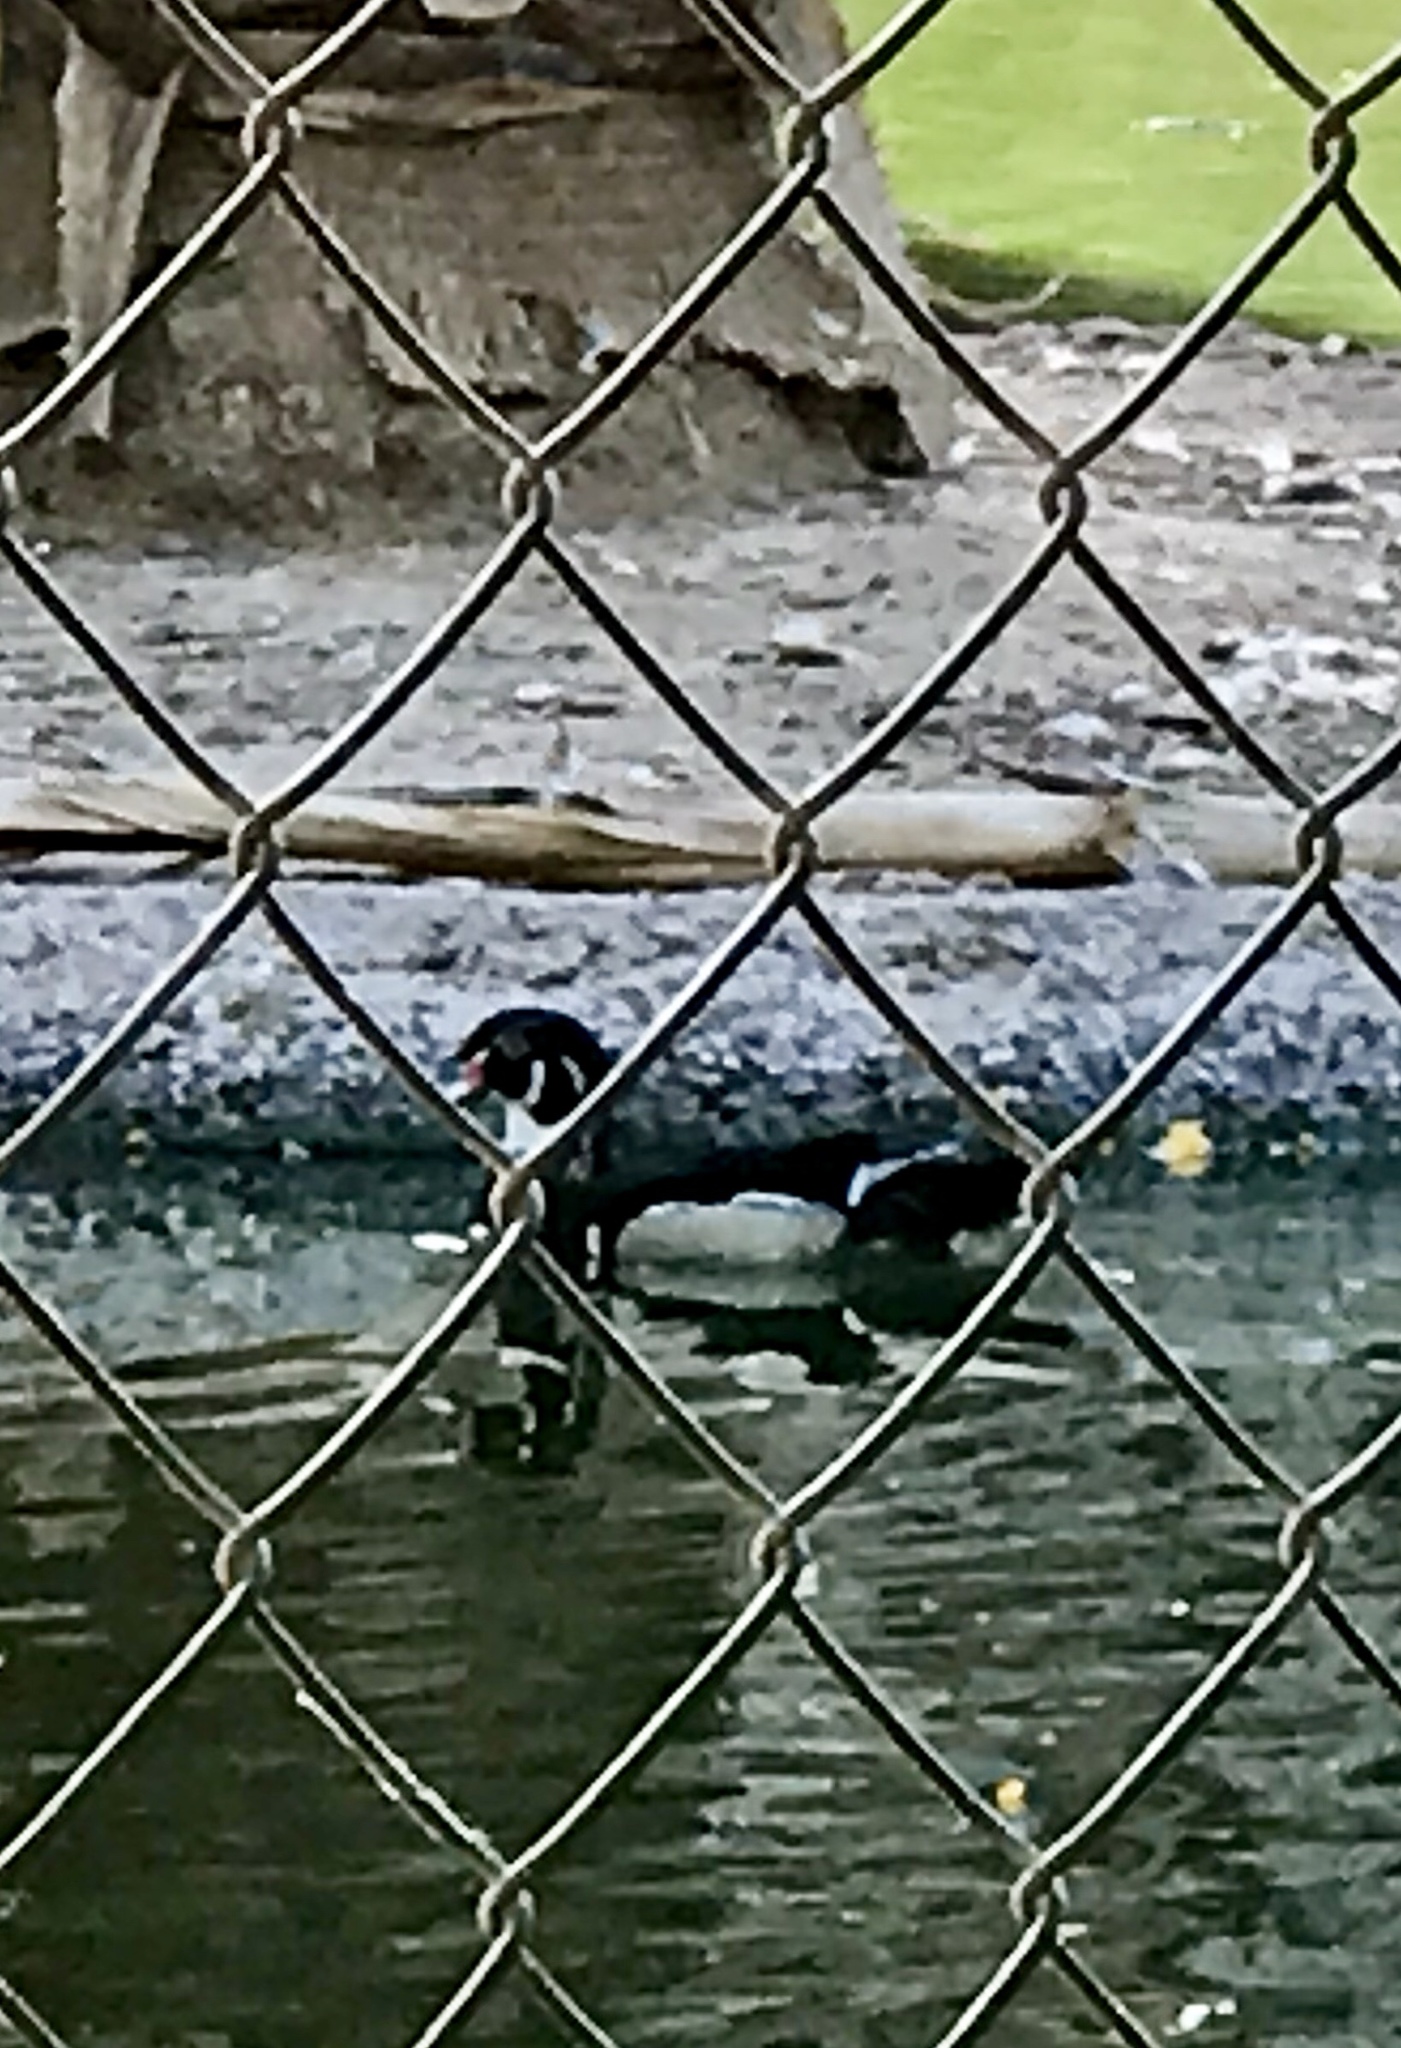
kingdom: Animalia
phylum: Chordata
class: Aves
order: Anseriformes
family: Anatidae
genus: Aix
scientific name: Aix sponsa
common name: Wood duck
